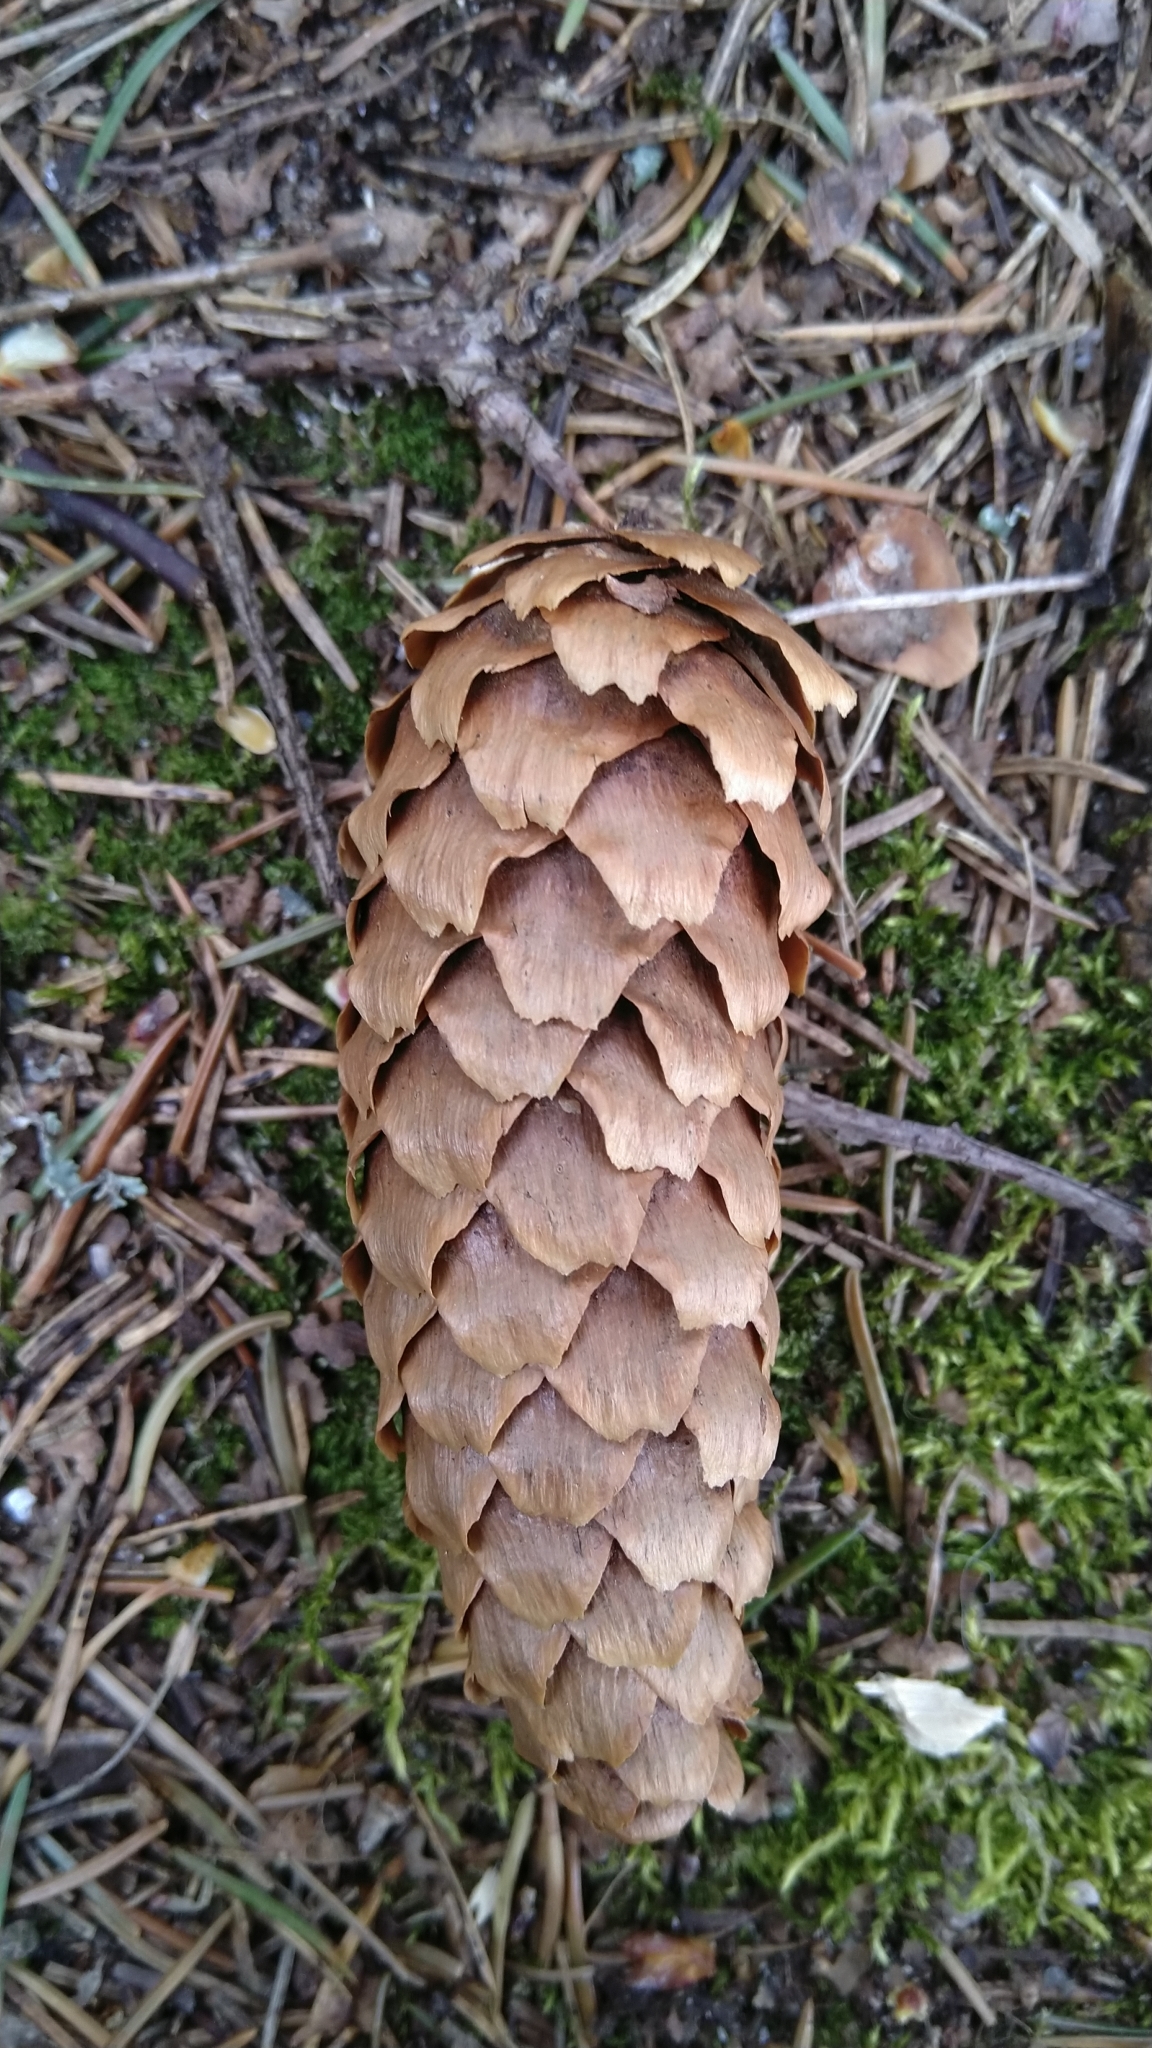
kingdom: Plantae
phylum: Tracheophyta
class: Pinopsida
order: Pinales
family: Pinaceae
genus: Picea
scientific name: Picea abies
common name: Norway spruce
